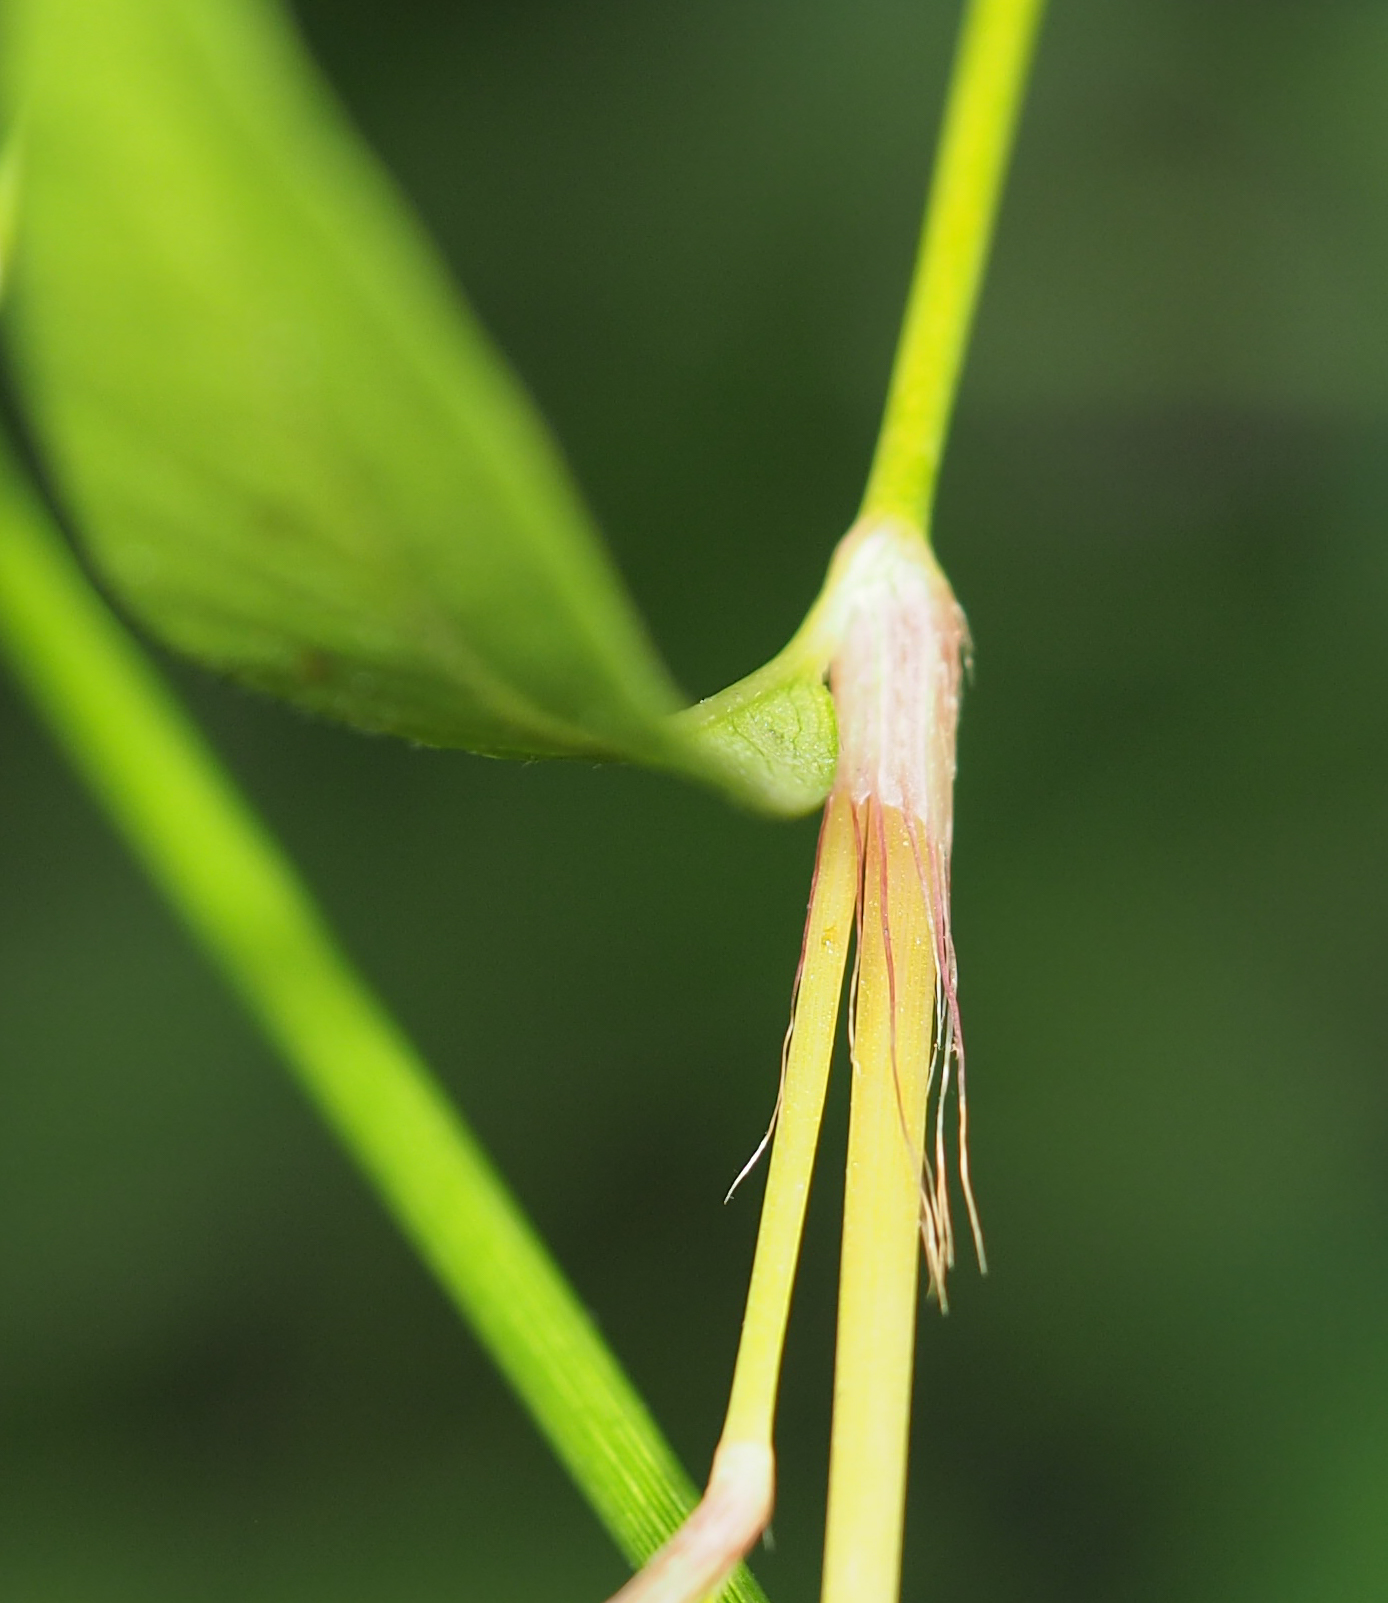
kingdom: Plantae
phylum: Tracheophyta
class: Magnoliopsida
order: Caryophyllales
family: Polygonaceae
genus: Persicaria
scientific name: Persicaria longiseta
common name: Bristly lady's-thumb
